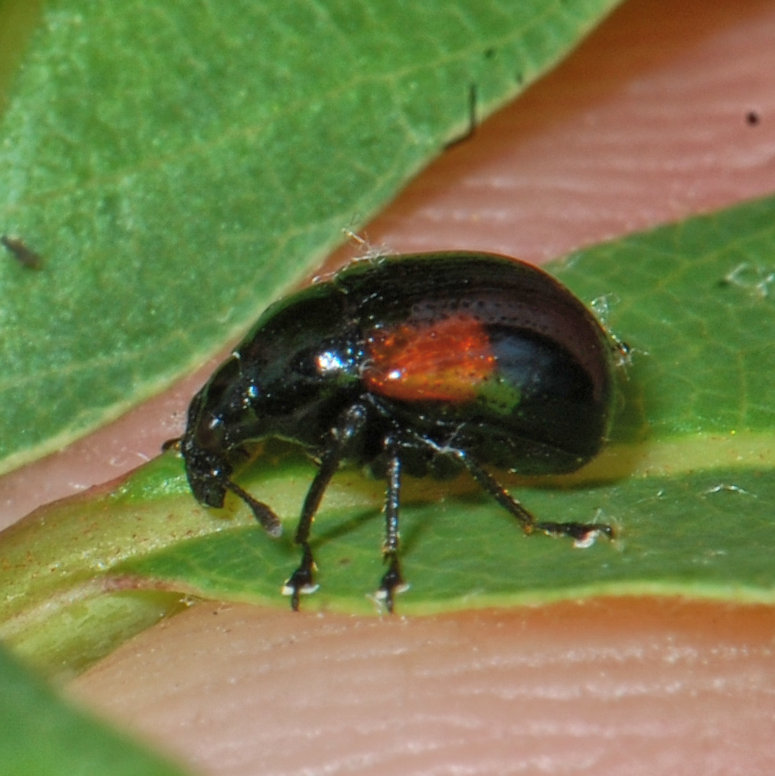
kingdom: Animalia
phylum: Arthropoda
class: Insecta
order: Coleoptera
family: Attelabidae
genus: Attelabus
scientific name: Attelabus bipustulatus
